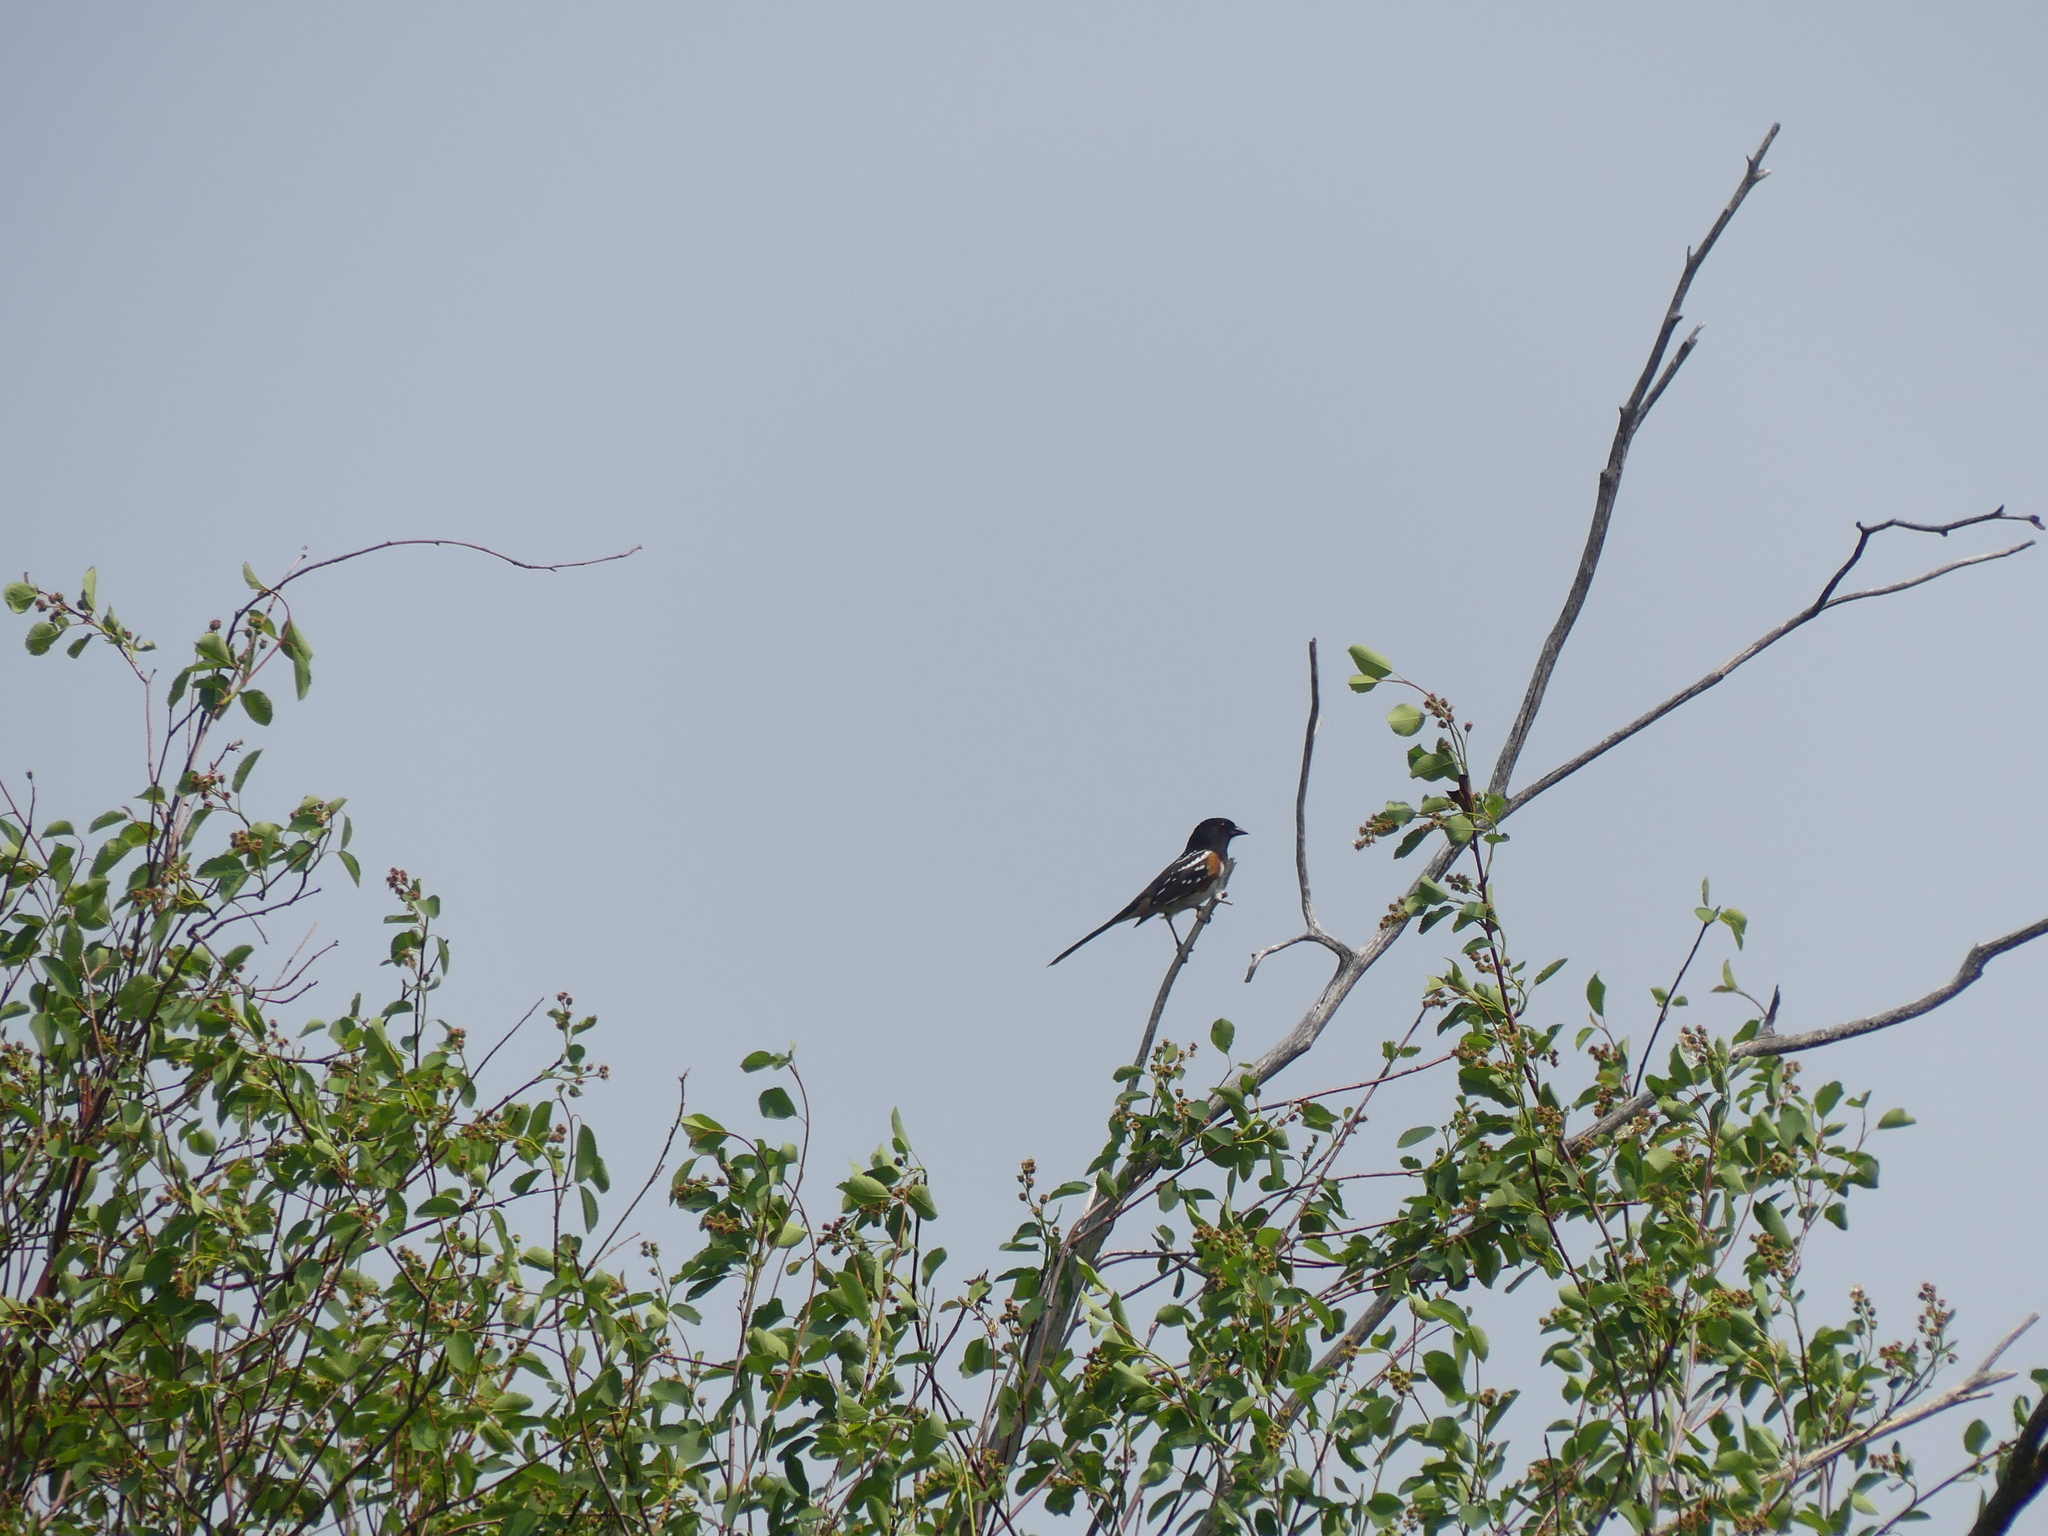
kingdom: Animalia
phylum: Chordata
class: Aves
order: Passeriformes
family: Passerellidae
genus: Pipilo
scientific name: Pipilo maculatus
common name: Spotted towhee
